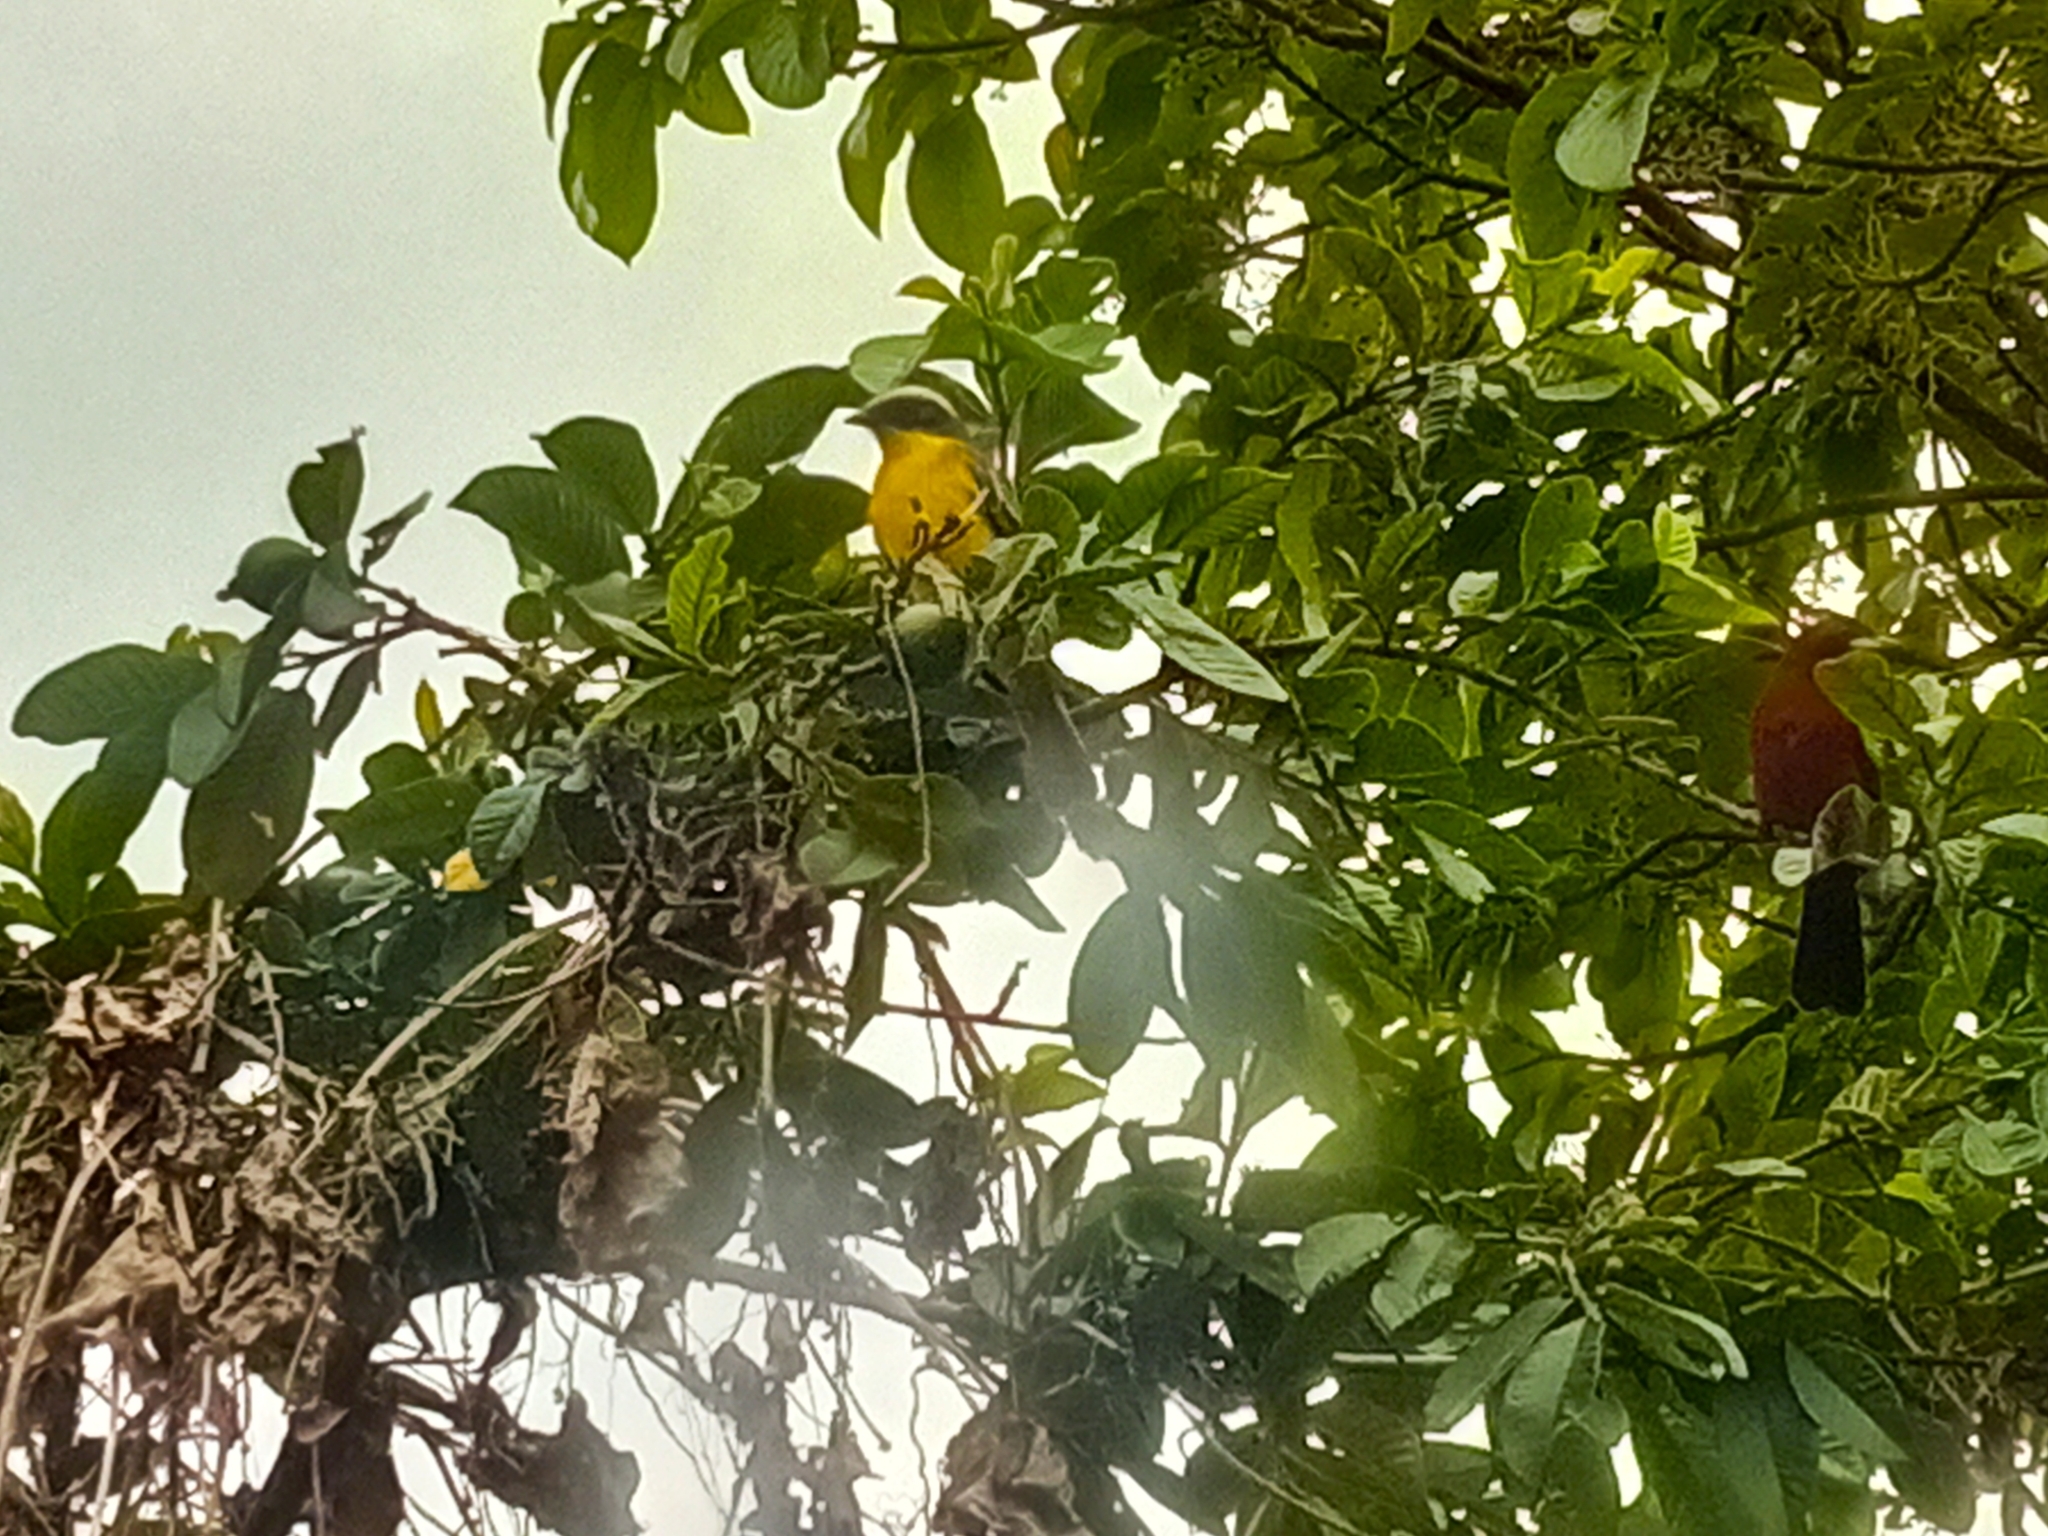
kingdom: Animalia
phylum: Chordata
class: Aves
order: Passeriformes
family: Thraupidae
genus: Ramphocelus
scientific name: Ramphocelus carbo
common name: Silver-beaked tanager
